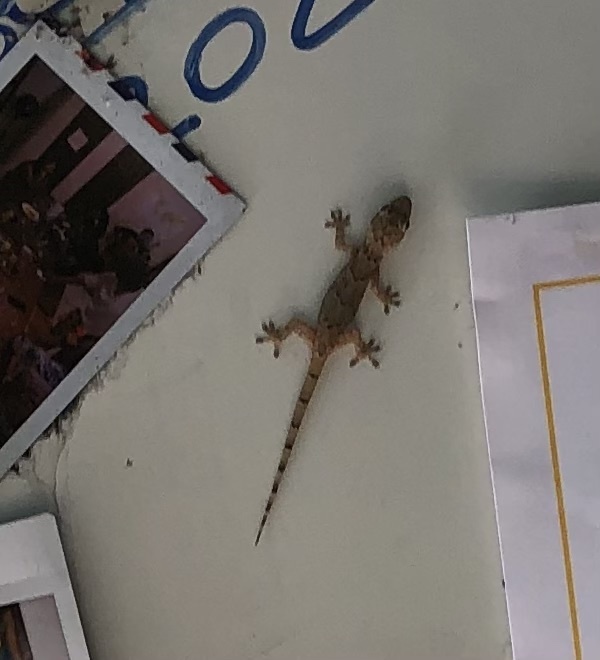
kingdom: Animalia
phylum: Chordata
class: Squamata
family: Gekkonidae
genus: Hemidactylus
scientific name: Hemidactylus mabouia
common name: House gecko
